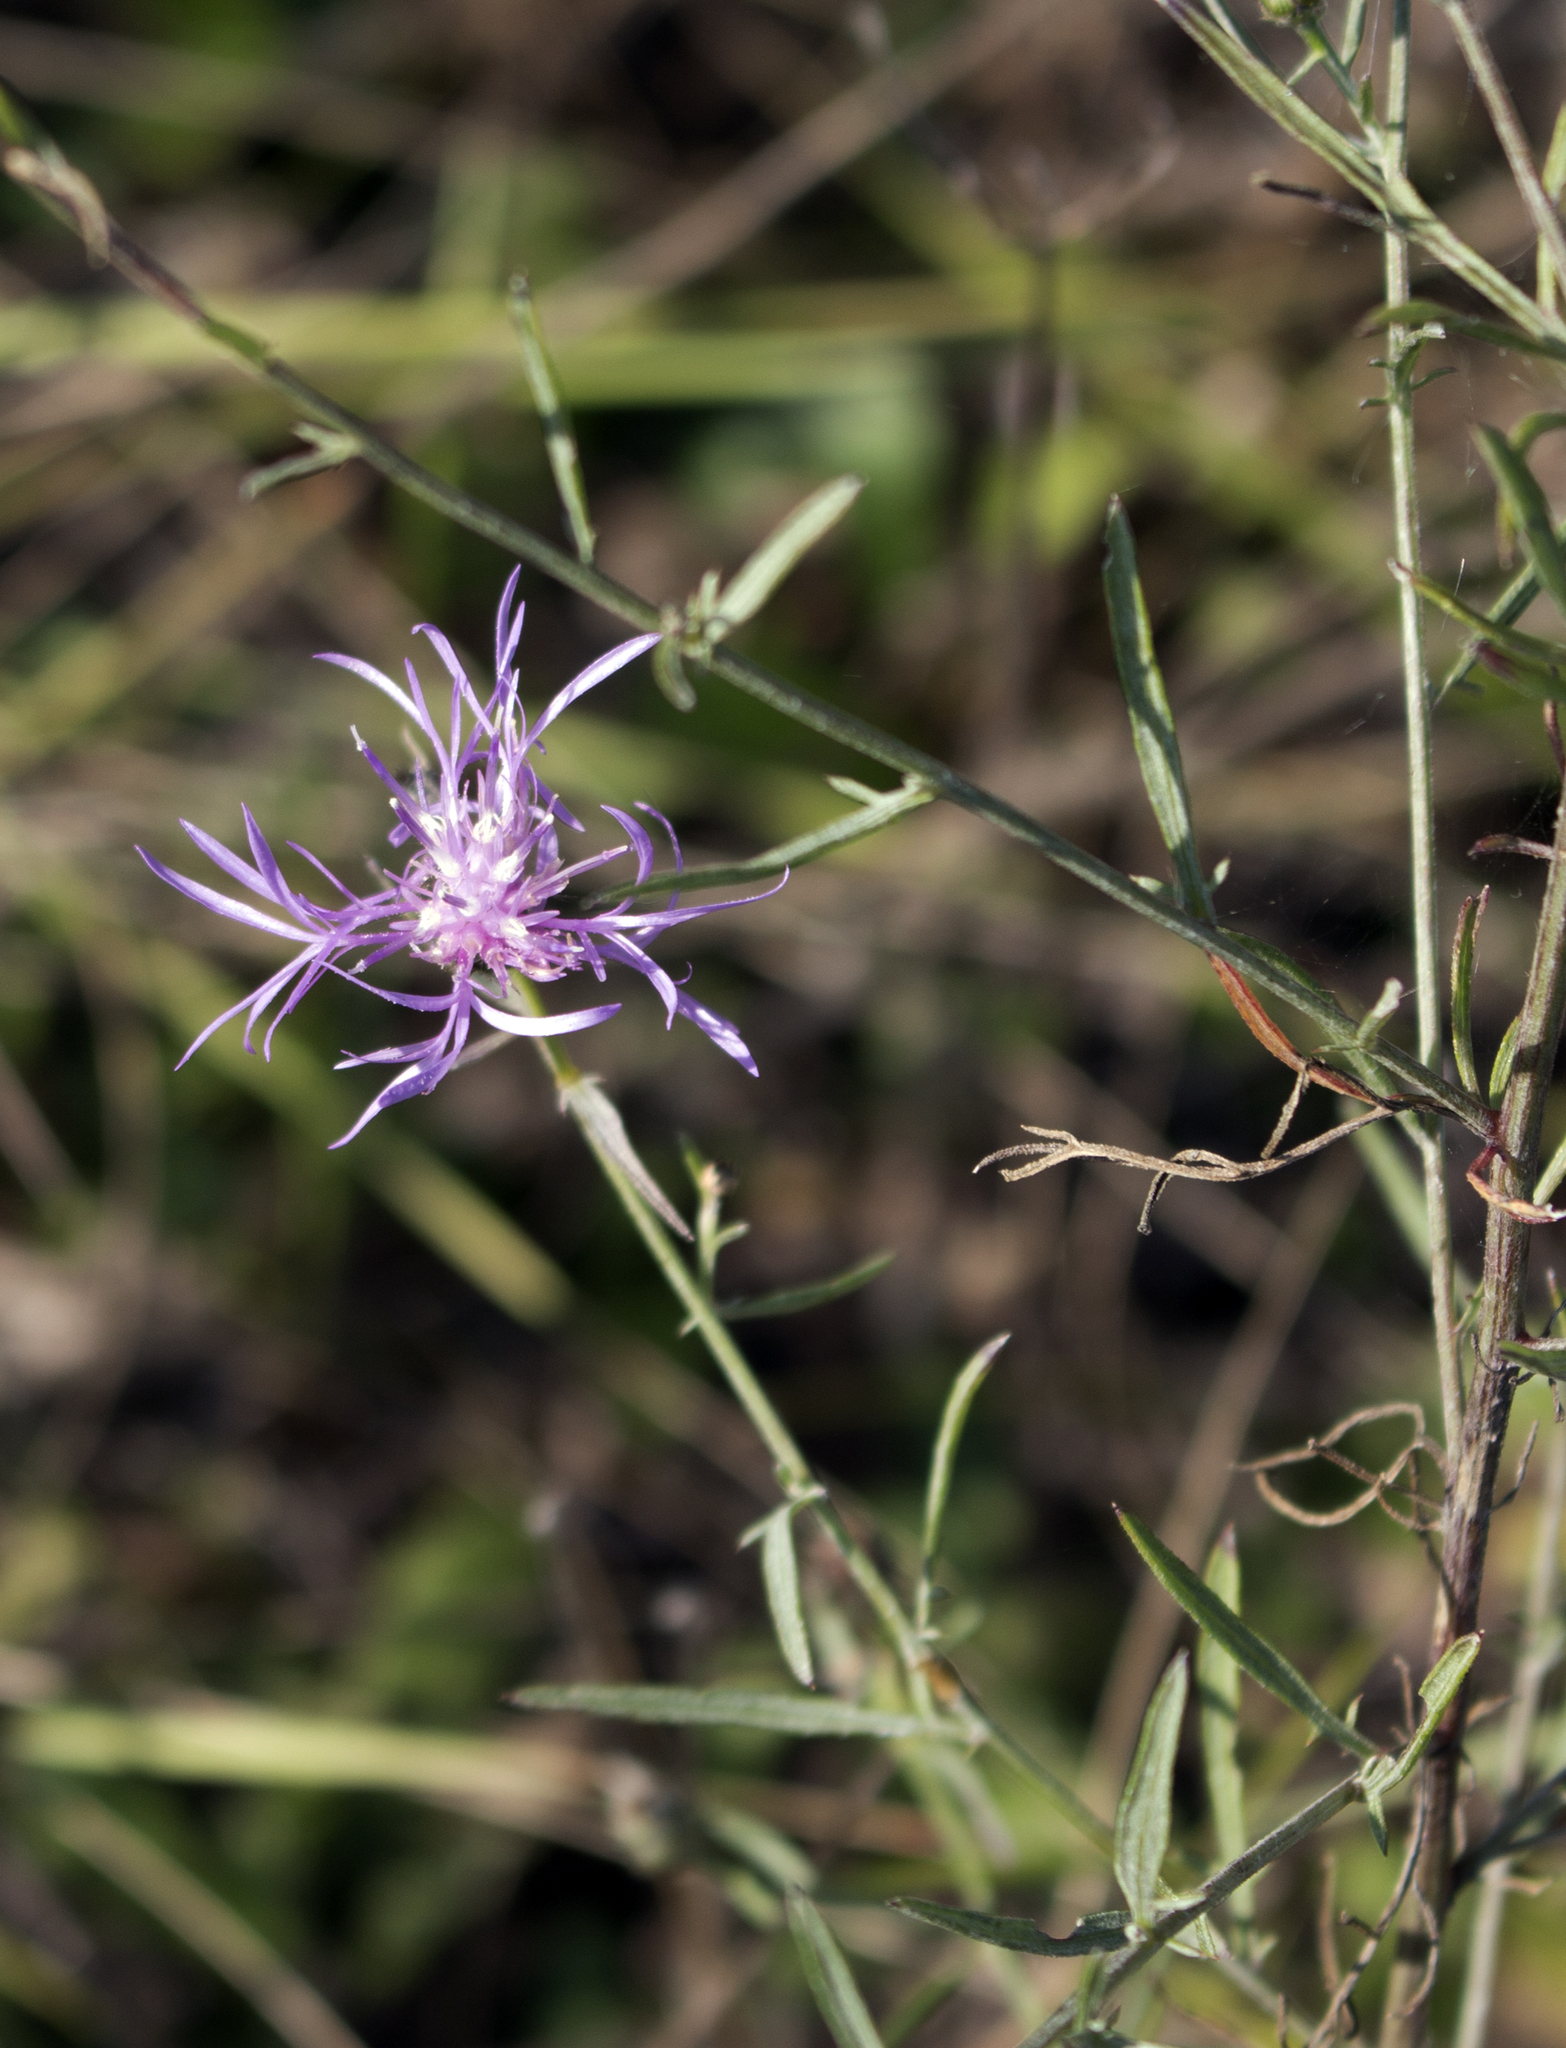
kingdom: Plantae
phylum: Tracheophyta
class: Magnoliopsida
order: Asterales
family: Asteraceae
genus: Centaurea
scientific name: Centaurea stoebe
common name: Spotted knapweed
